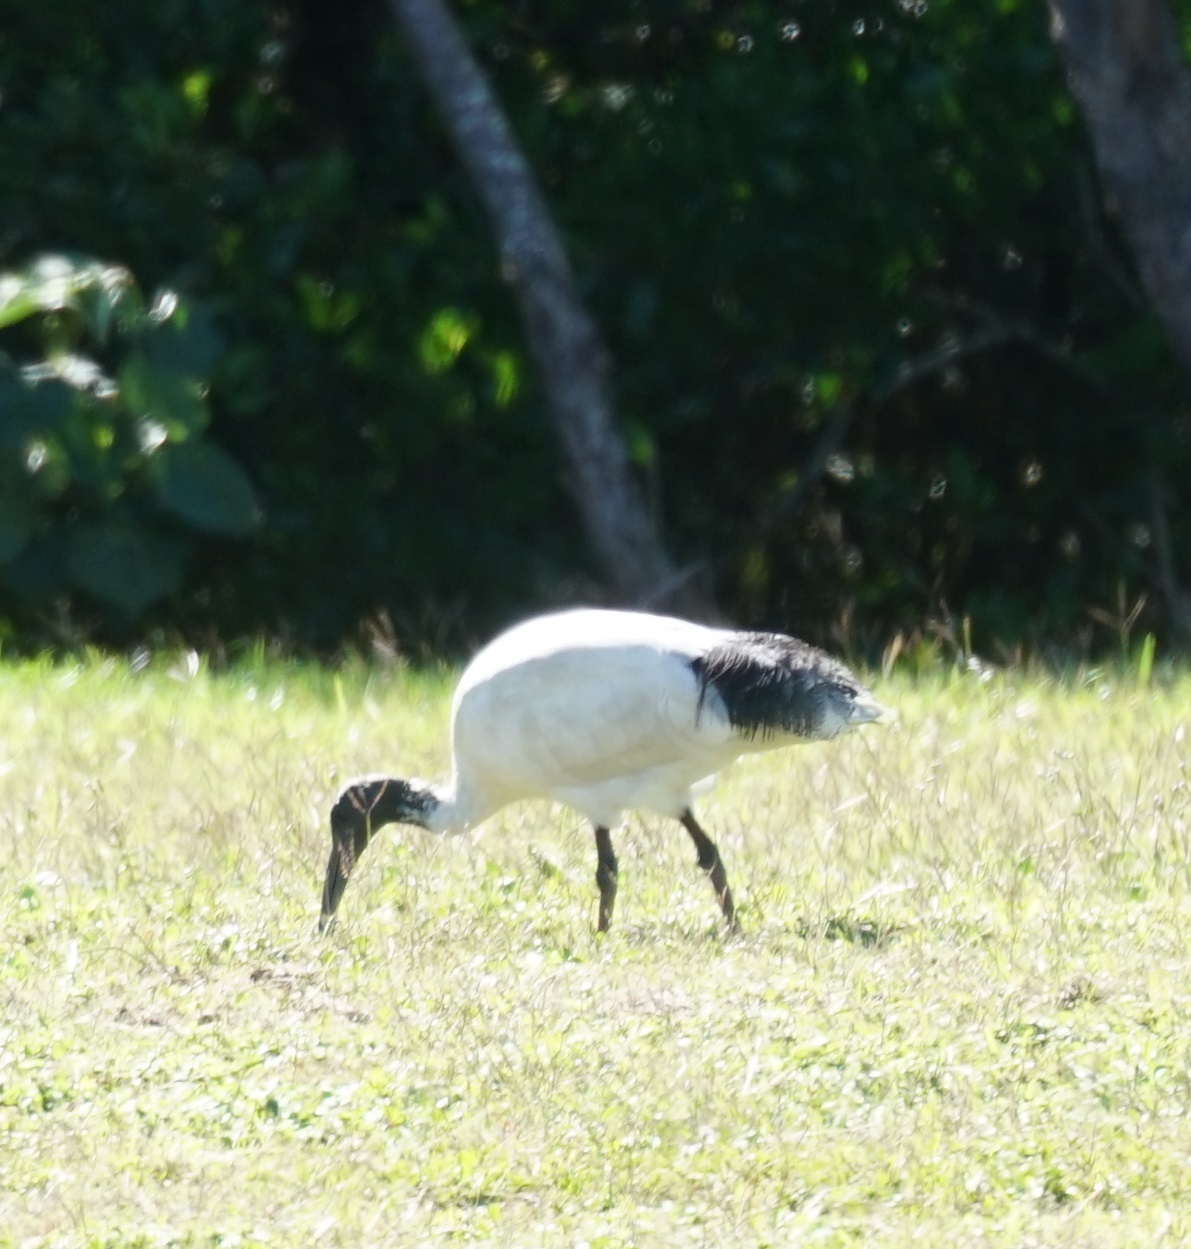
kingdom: Animalia
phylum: Chordata
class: Aves
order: Pelecaniformes
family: Threskiornithidae
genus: Threskiornis
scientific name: Threskiornis molucca
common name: Australian white ibis
